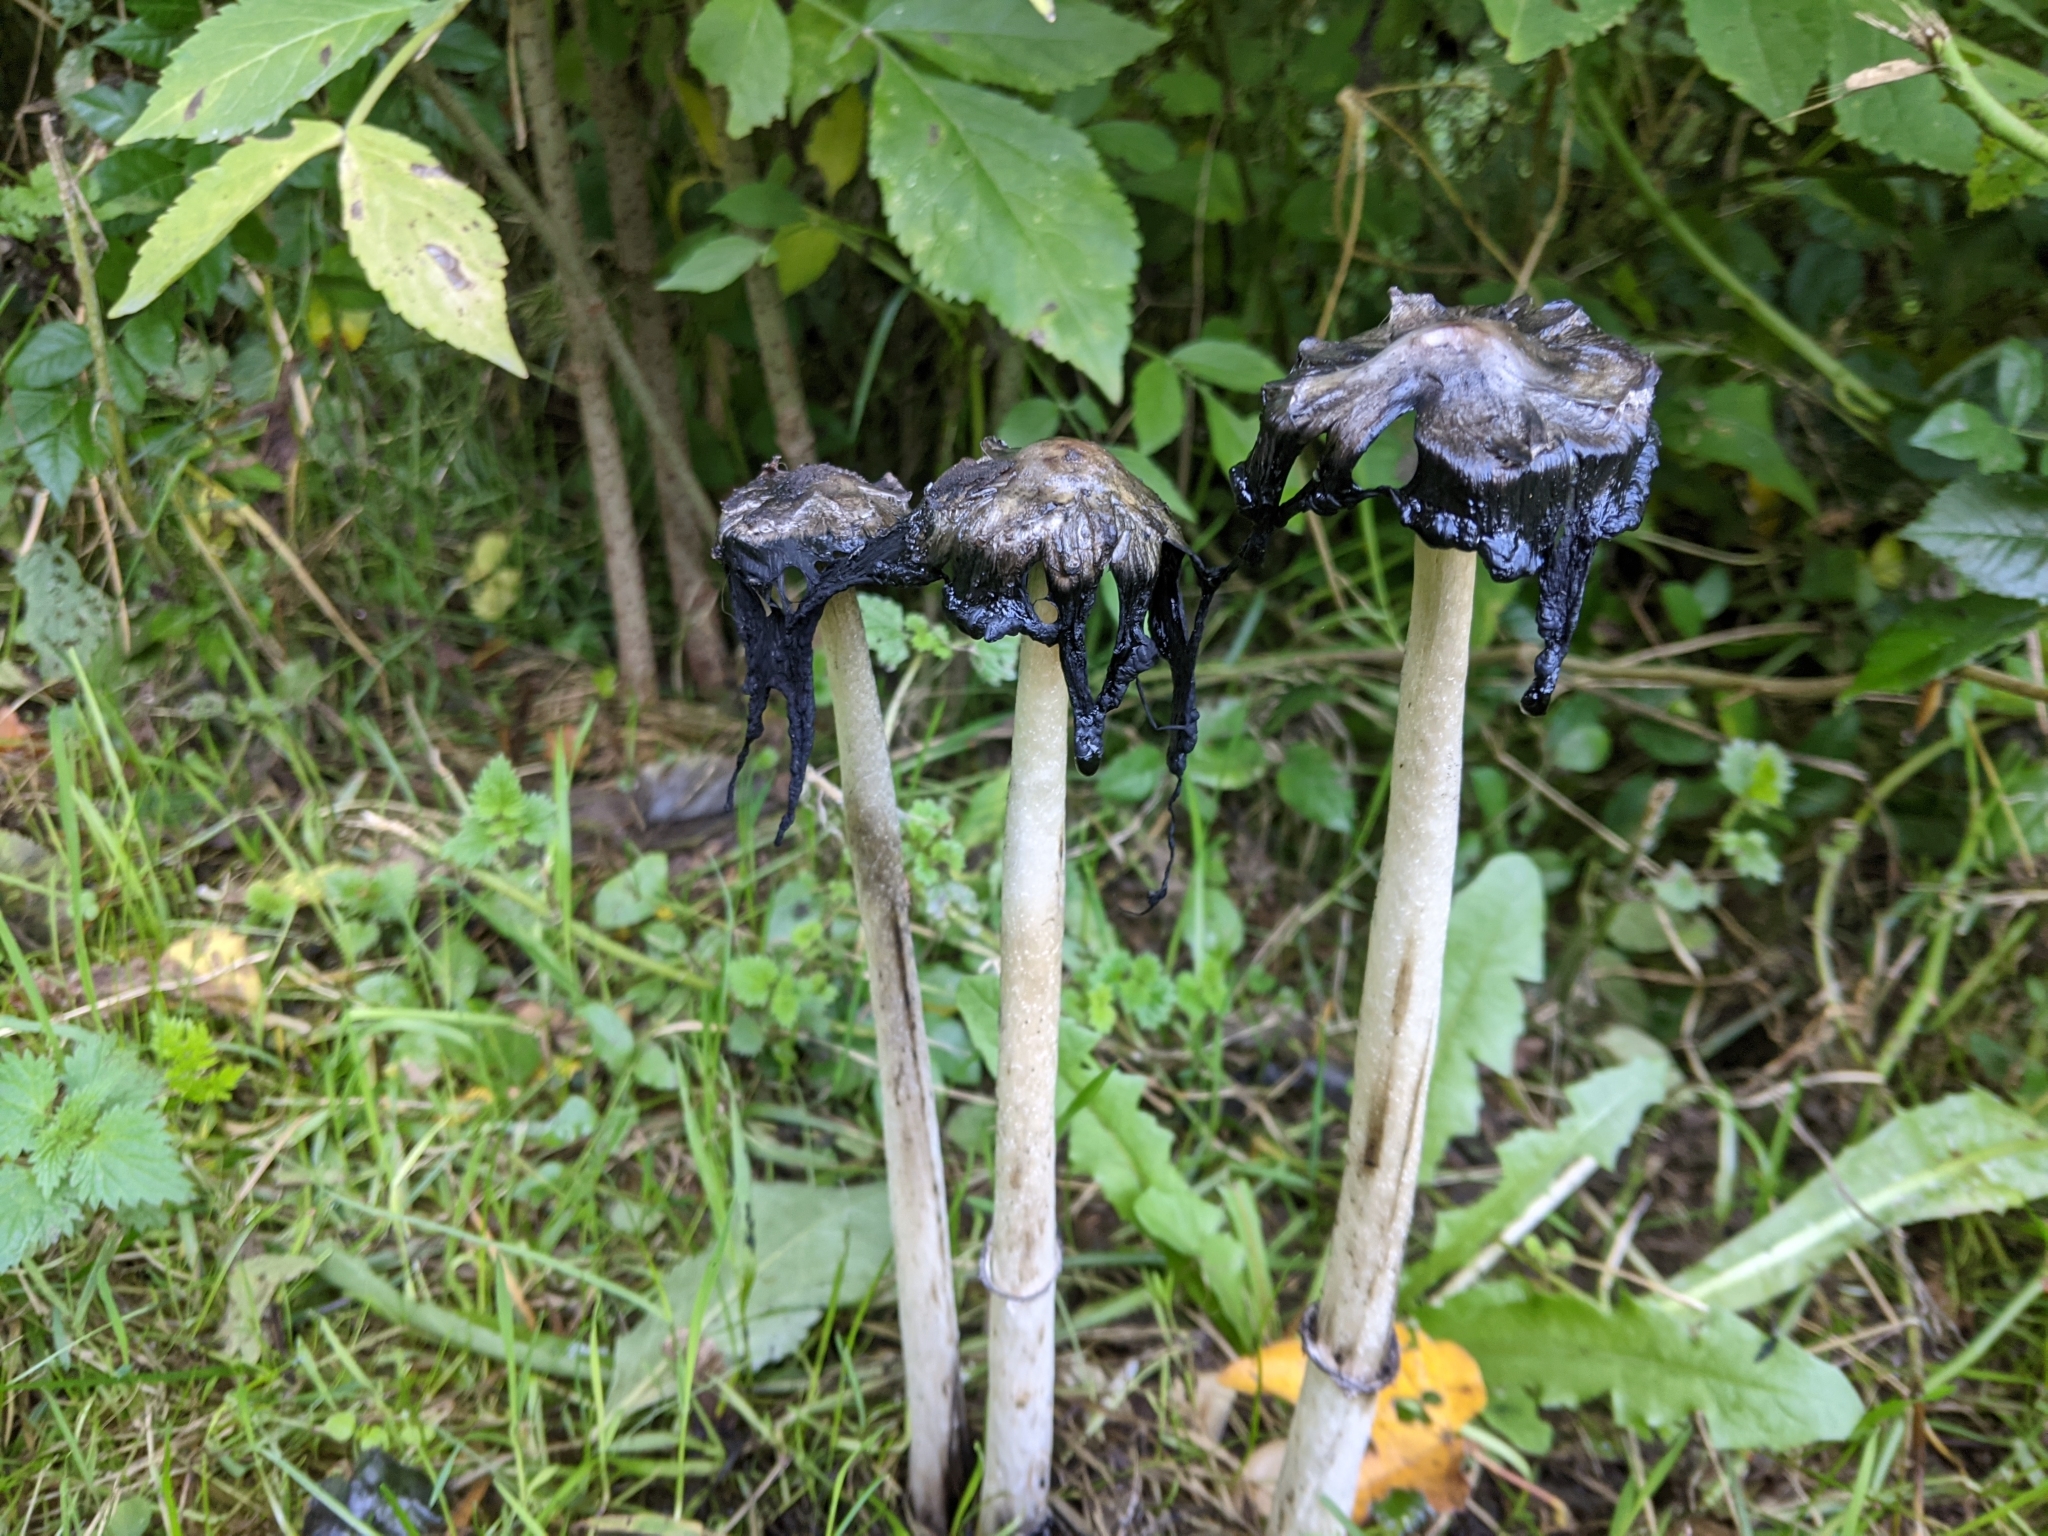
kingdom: Fungi
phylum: Basidiomycota
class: Agaricomycetes
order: Agaricales
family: Agaricaceae
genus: Coprinus
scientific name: Coprinus comatus
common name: Lawyer's wig
